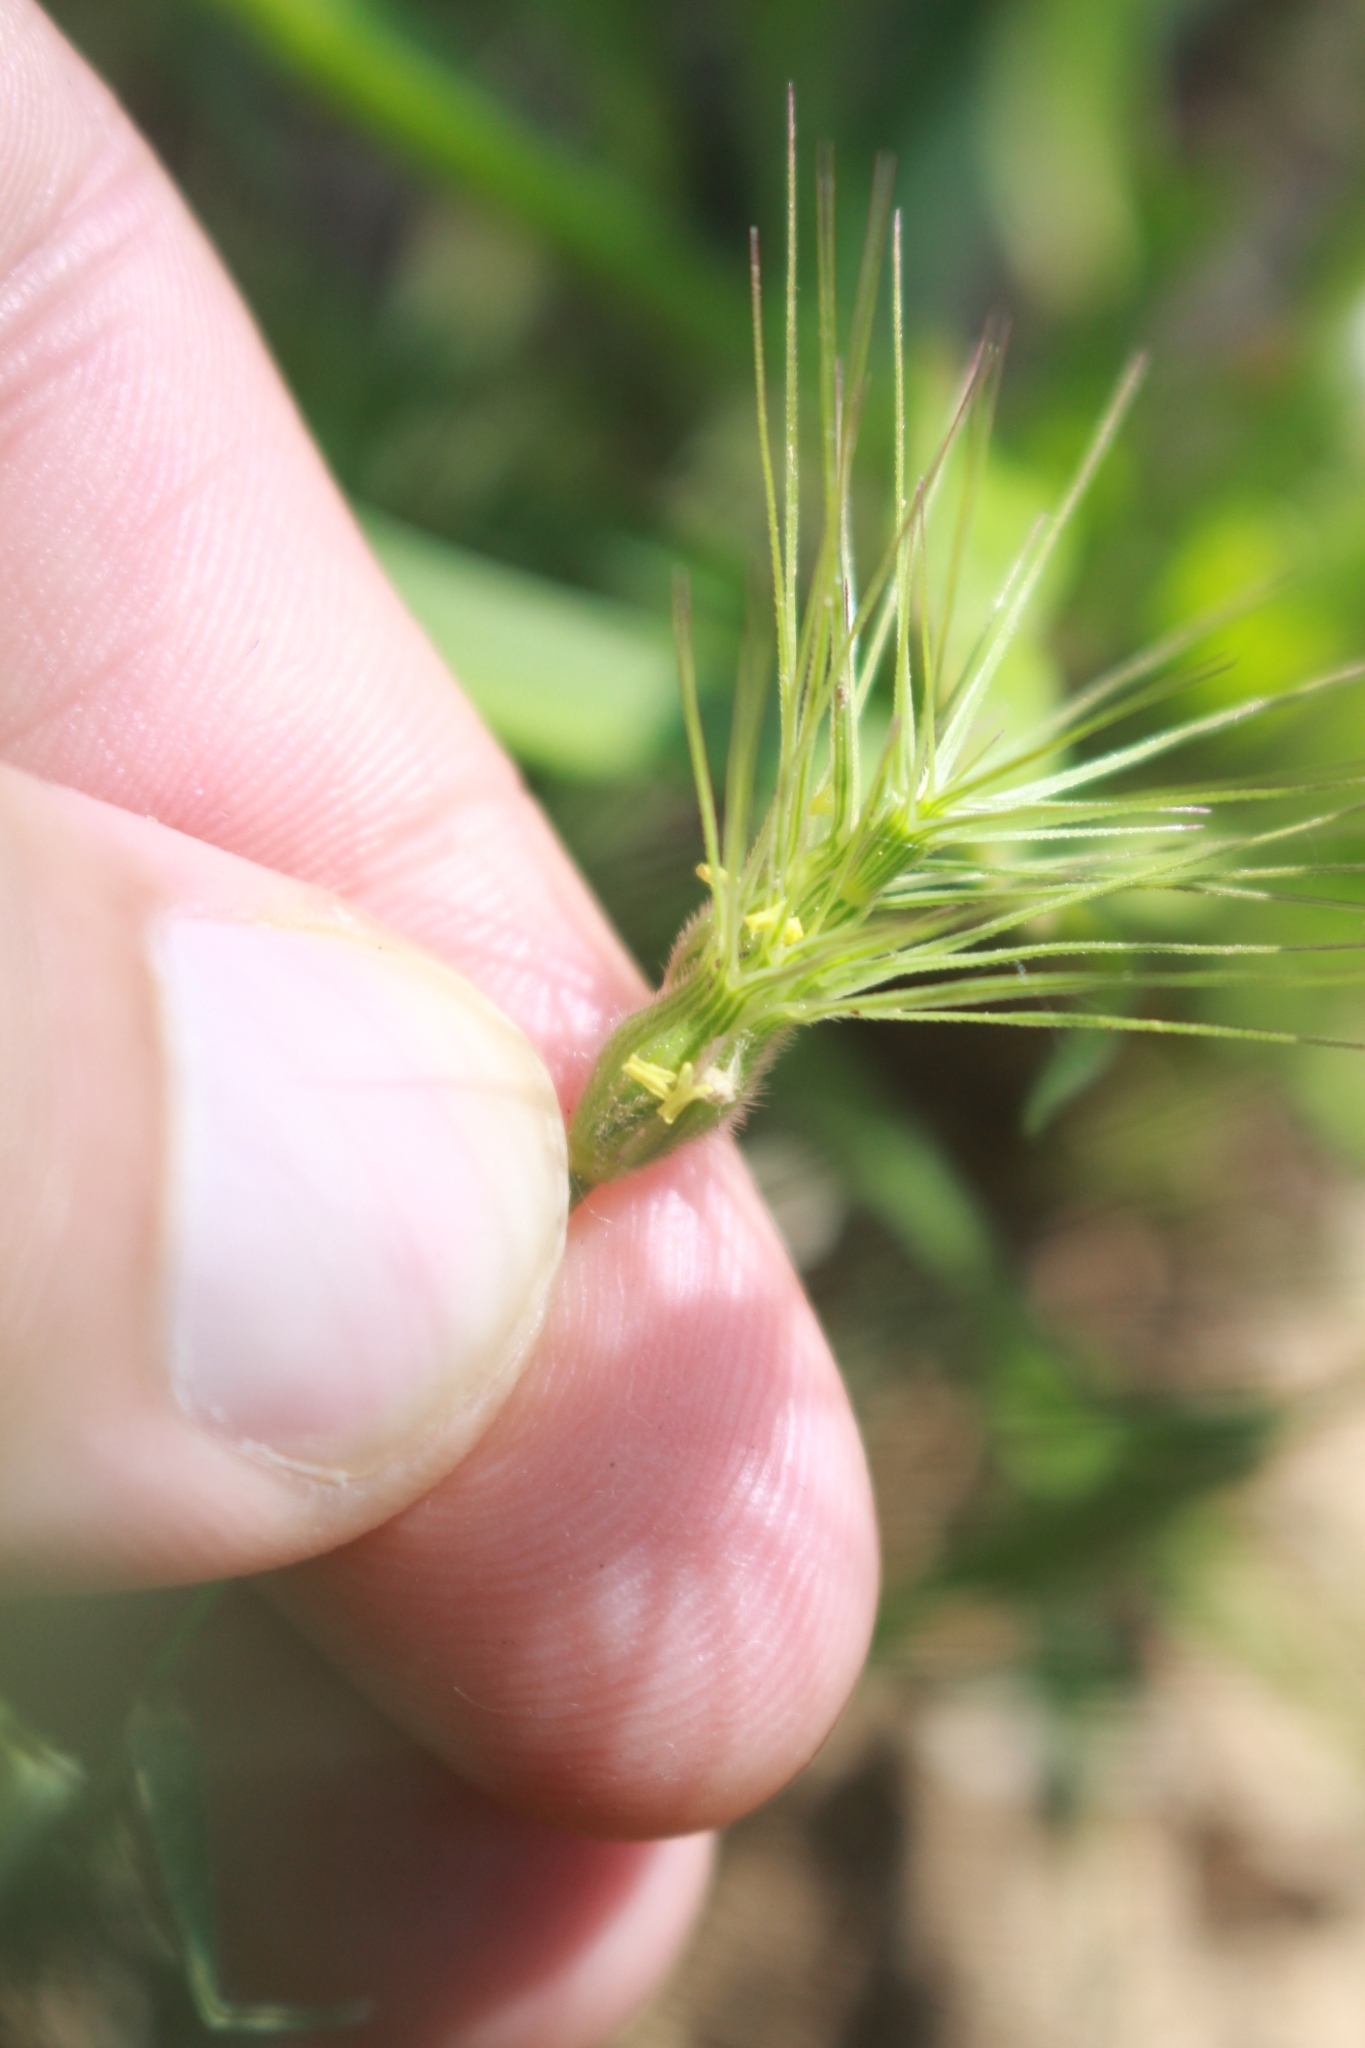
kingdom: Plantae
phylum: Tracheophyta
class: Liliopsida
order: Poales
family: Poaceae
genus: Aegilops
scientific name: Aegilops geniculata
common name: Ovate goat grass
